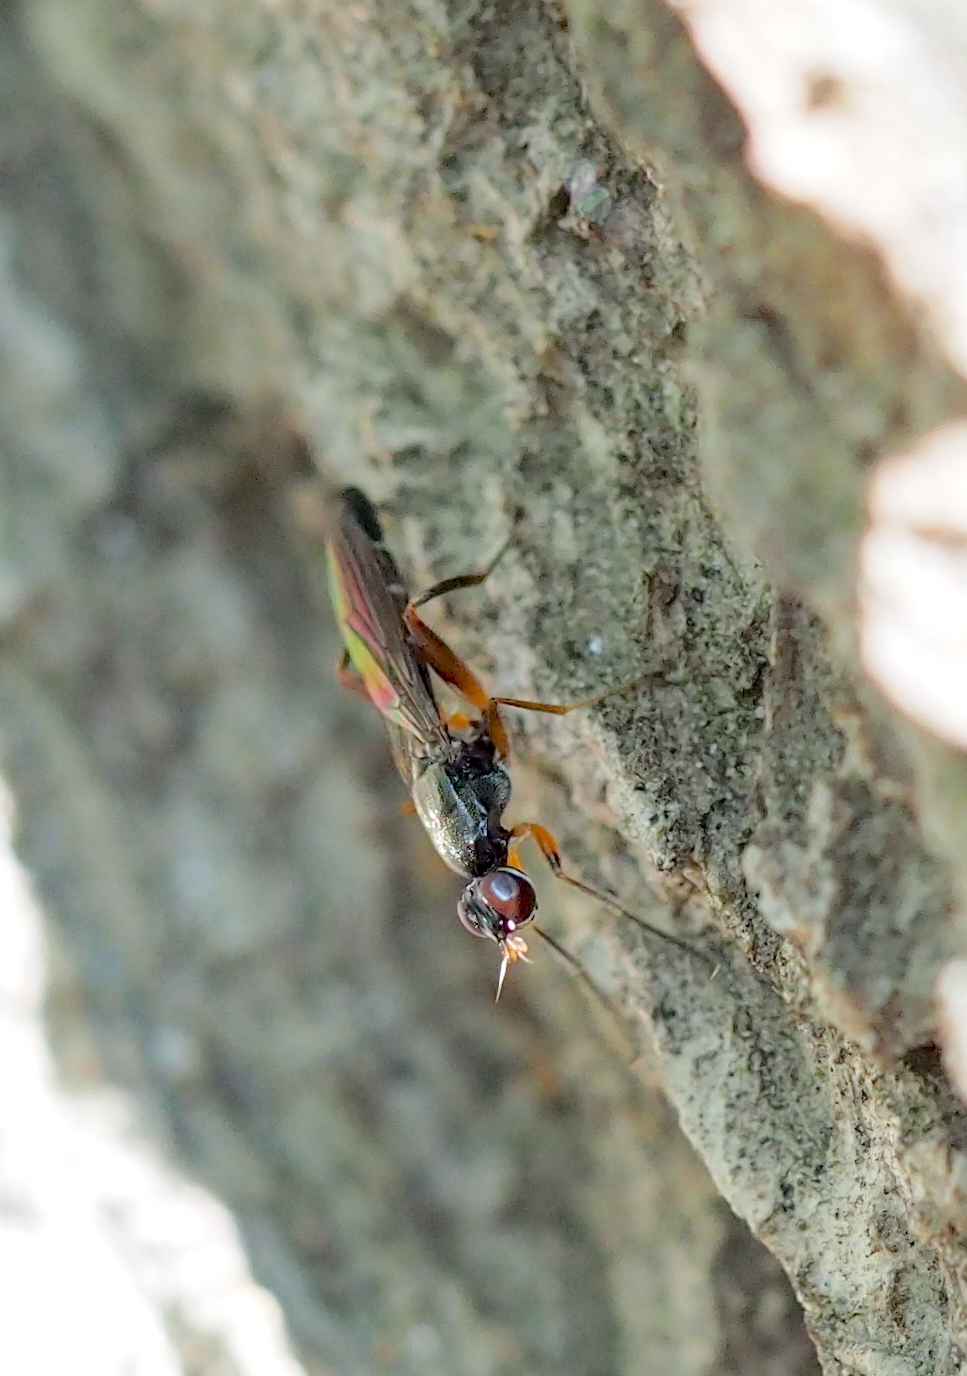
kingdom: Animalia
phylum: Arthropoda
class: Insecta
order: Diptera
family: Megamerinidae
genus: Megamerina
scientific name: Megamerina dolium
